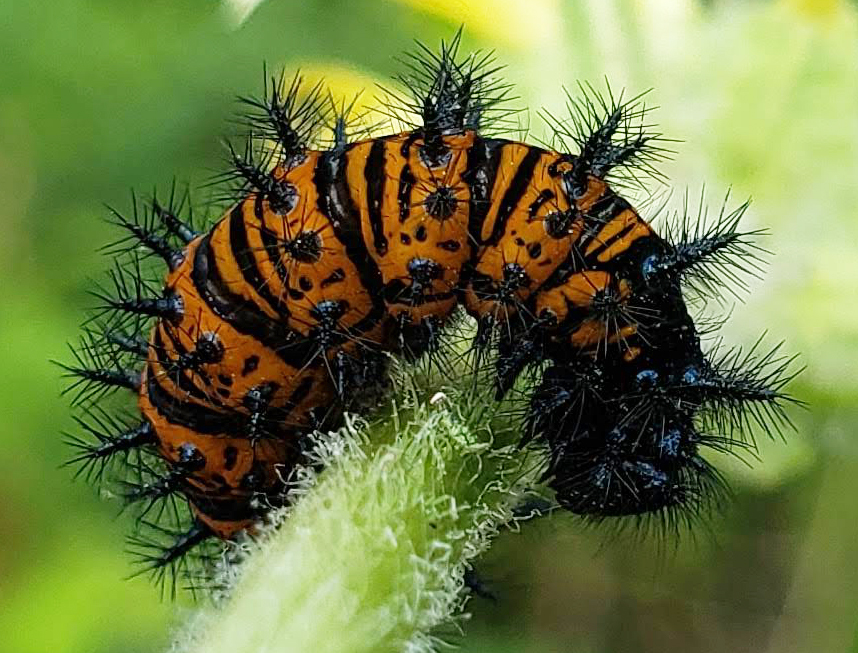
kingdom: Animalia
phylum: Arthropoda
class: Insecta
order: Lepidoptera
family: Nymphalidae
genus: Euphydryas
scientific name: Euphydryas phaeton
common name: Baltimore checkerspot
